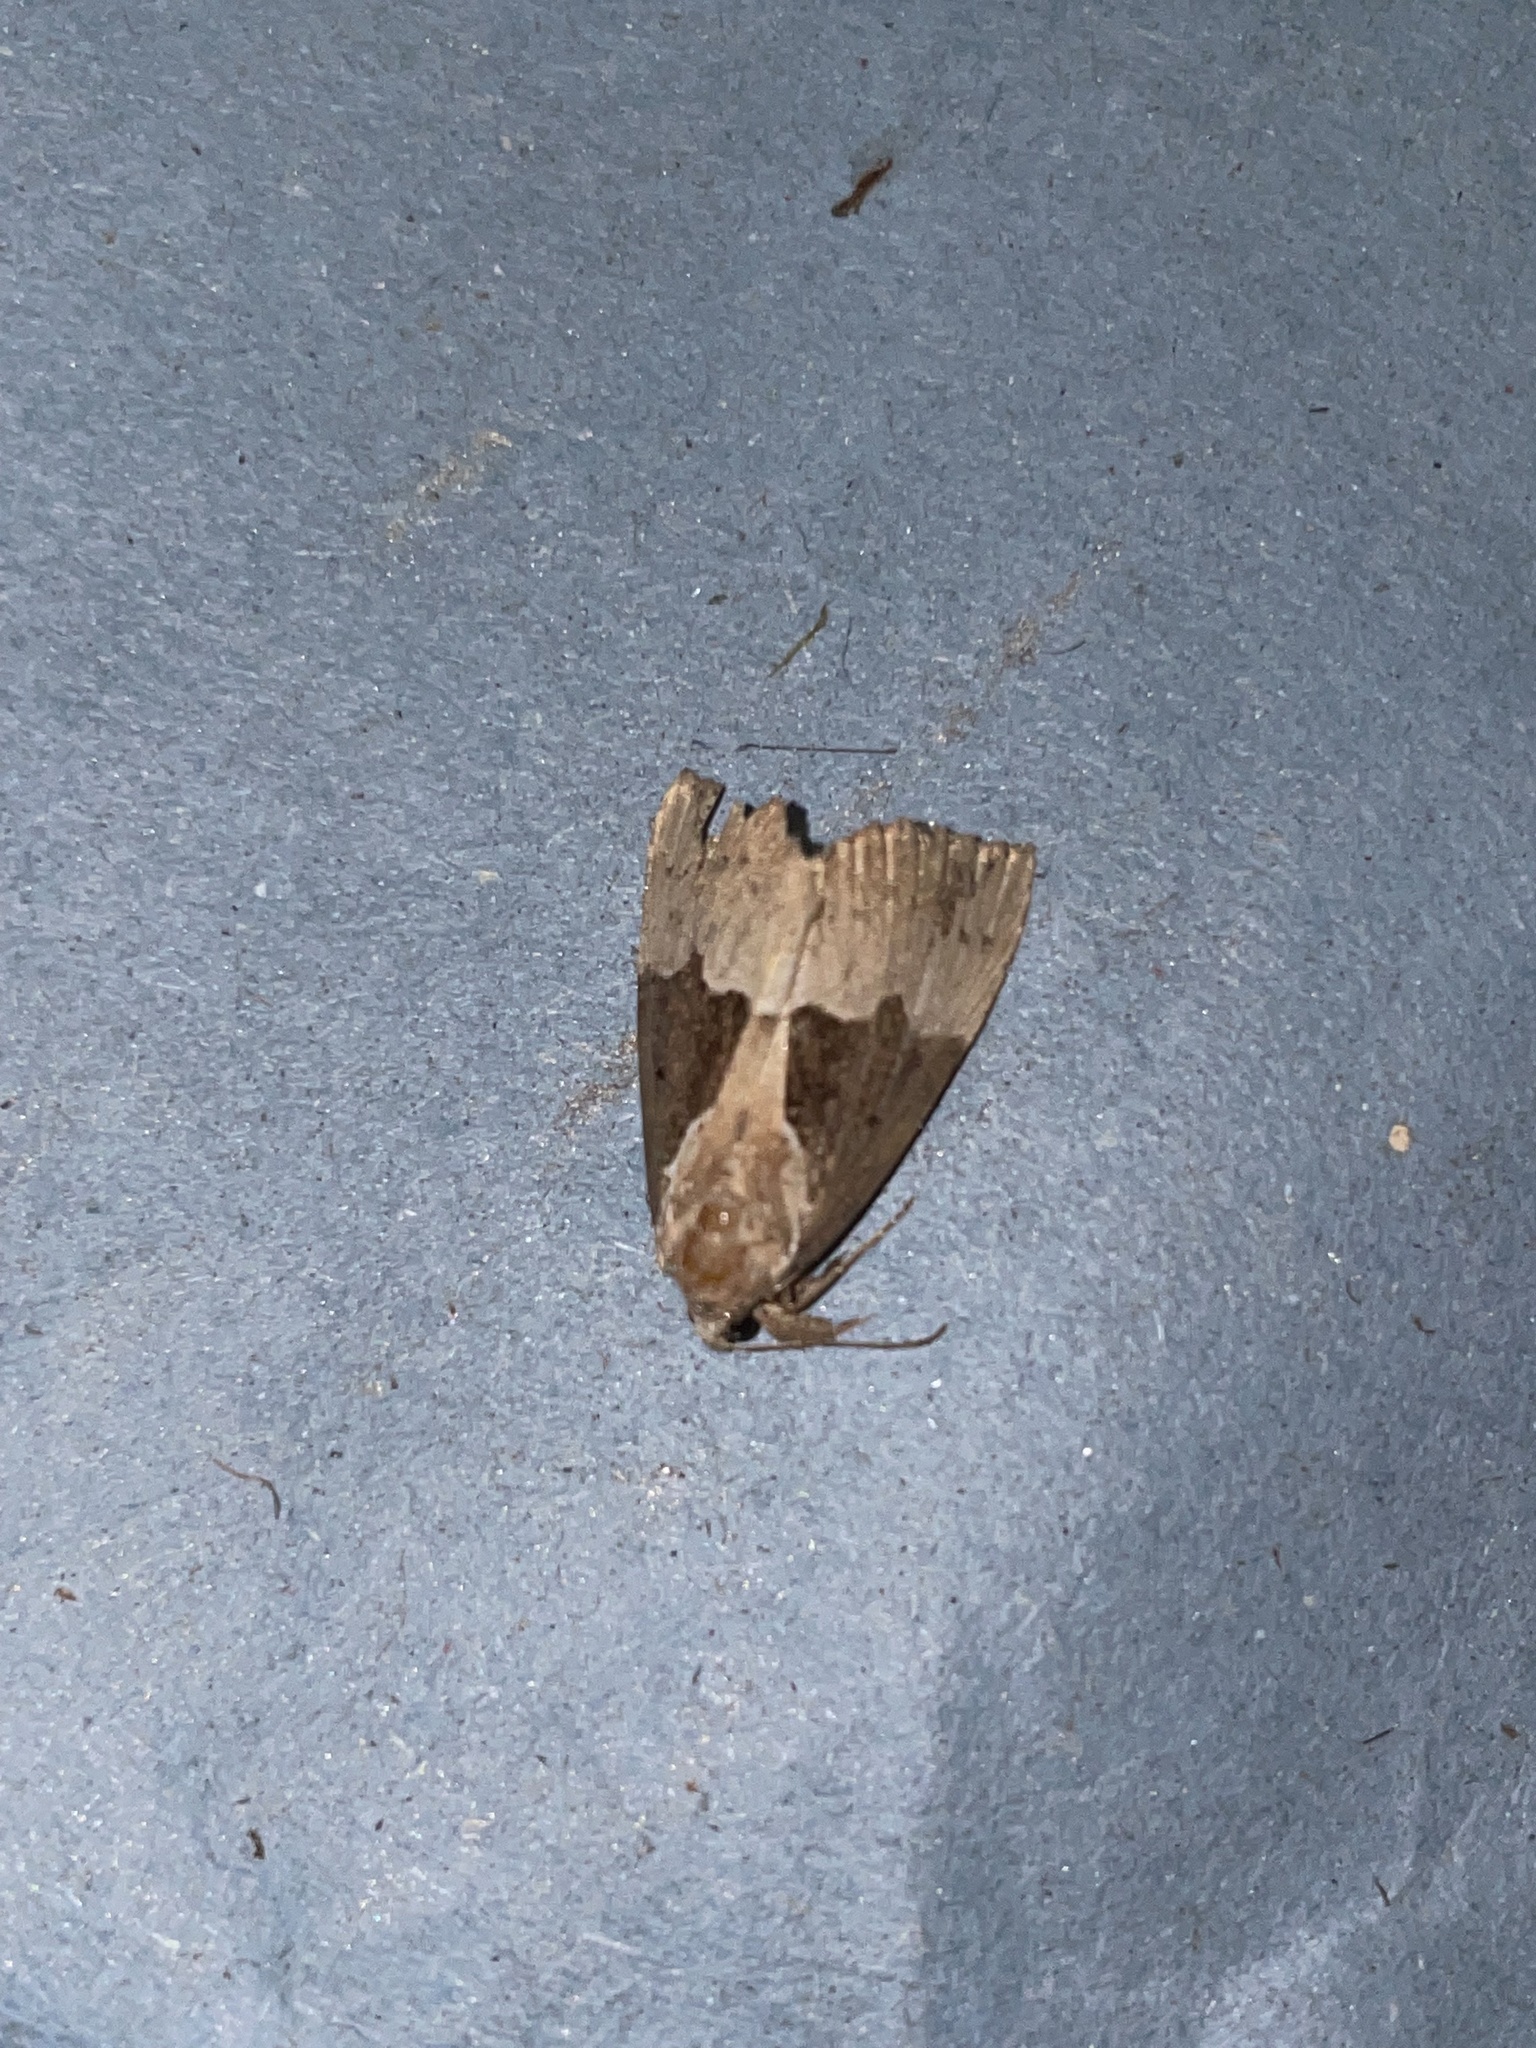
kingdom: Animalia
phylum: Arthropoda
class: Insecta
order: Lepidoptera
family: Erebidae
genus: Hypena
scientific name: Hypena bijugalis
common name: Dimorphic bomolocha moth
